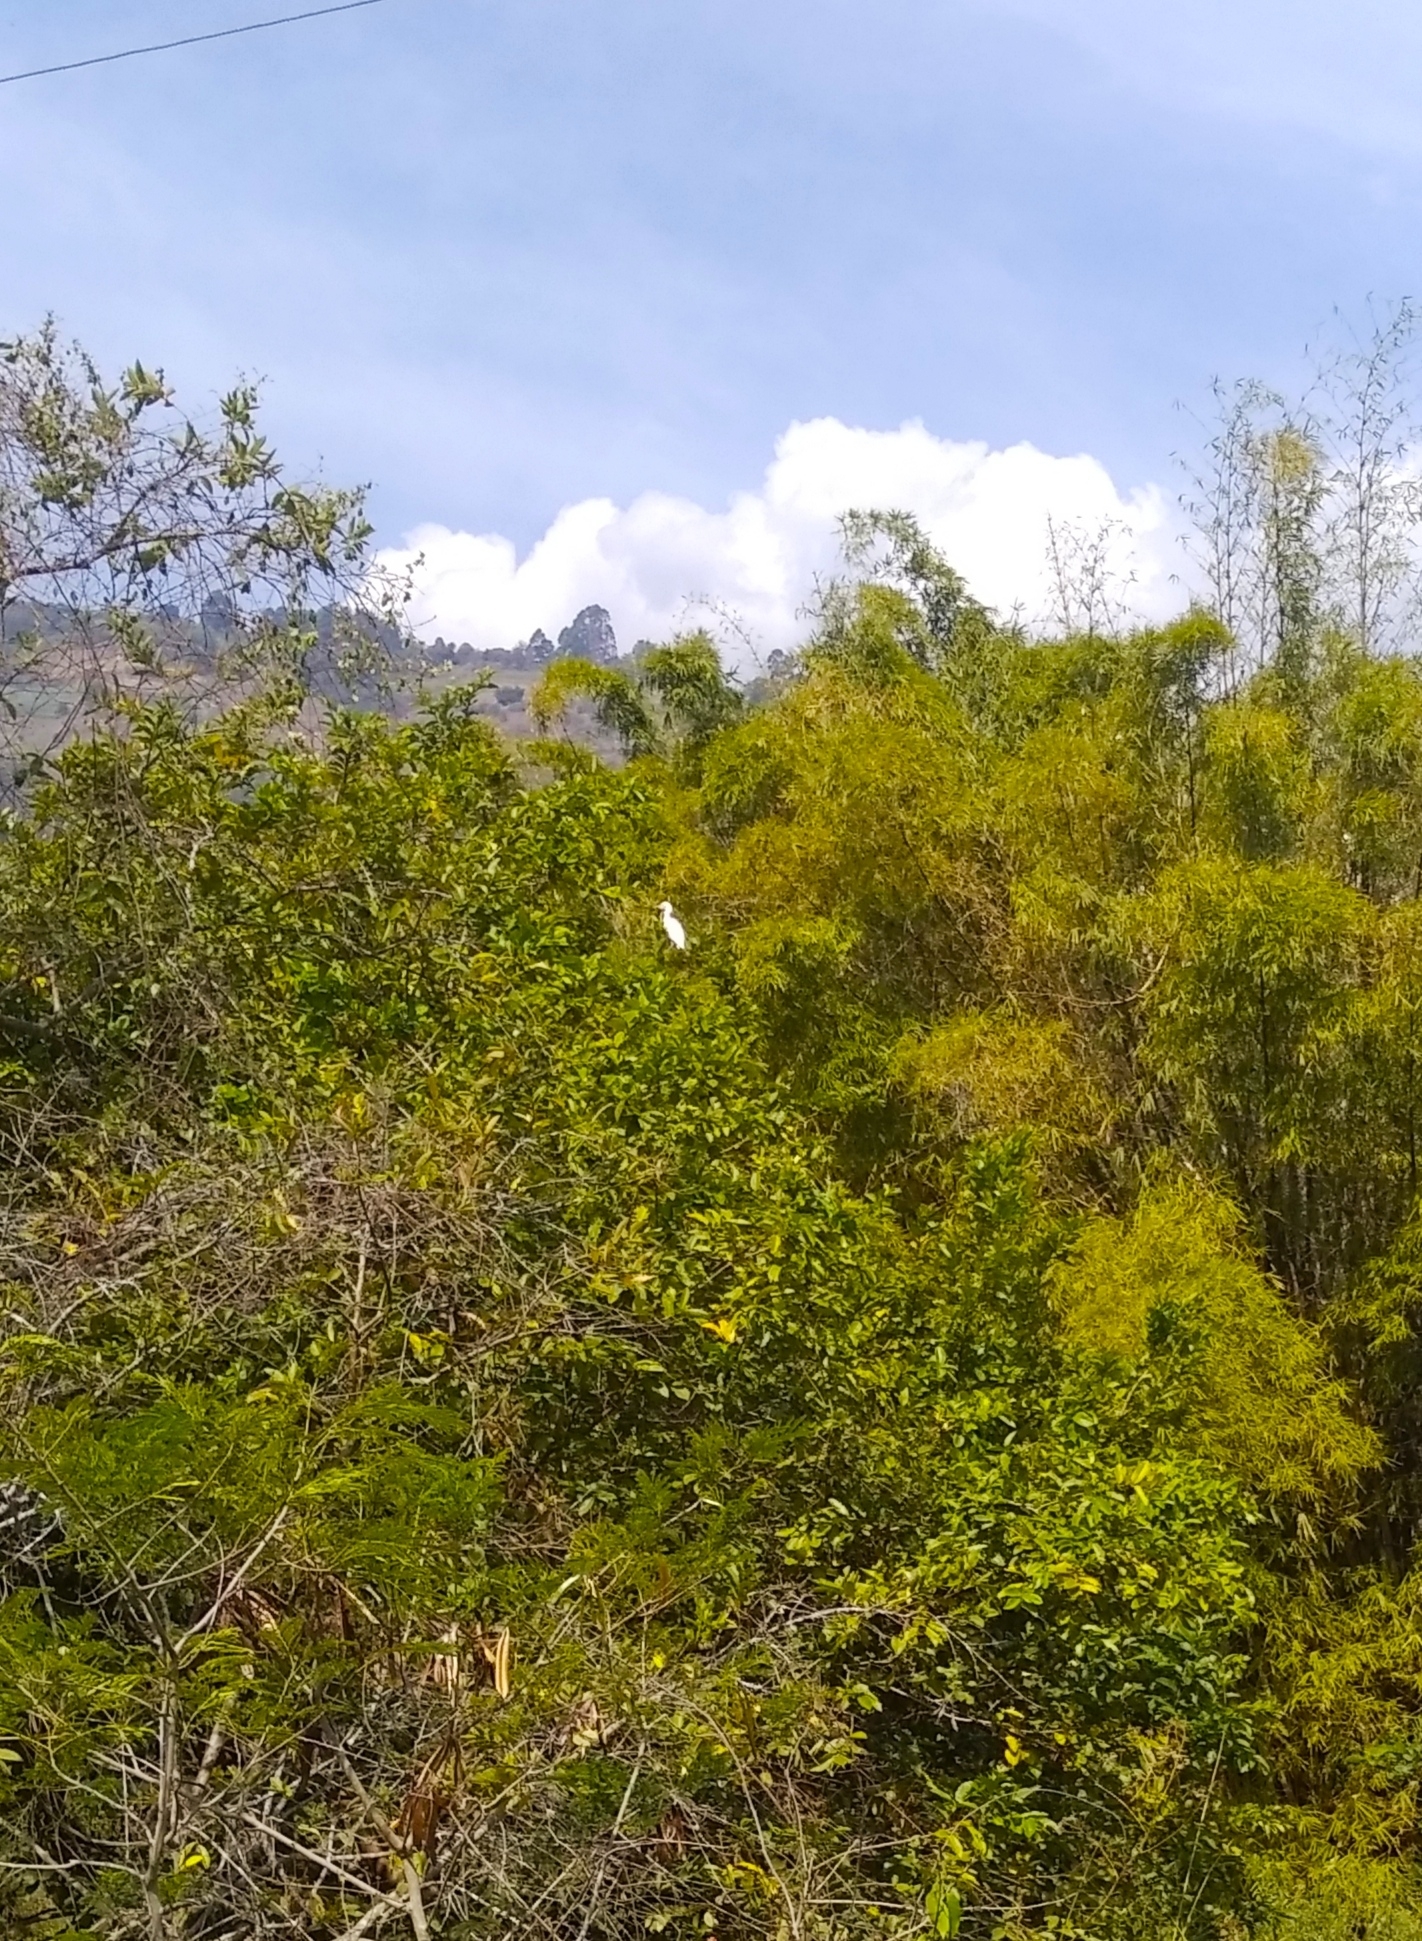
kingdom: Animalia
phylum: Chordata
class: Aves
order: Pelecaniformes
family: Ardeidae
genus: Bubulcus
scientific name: Bubulcus ibis
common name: Cattle egret
